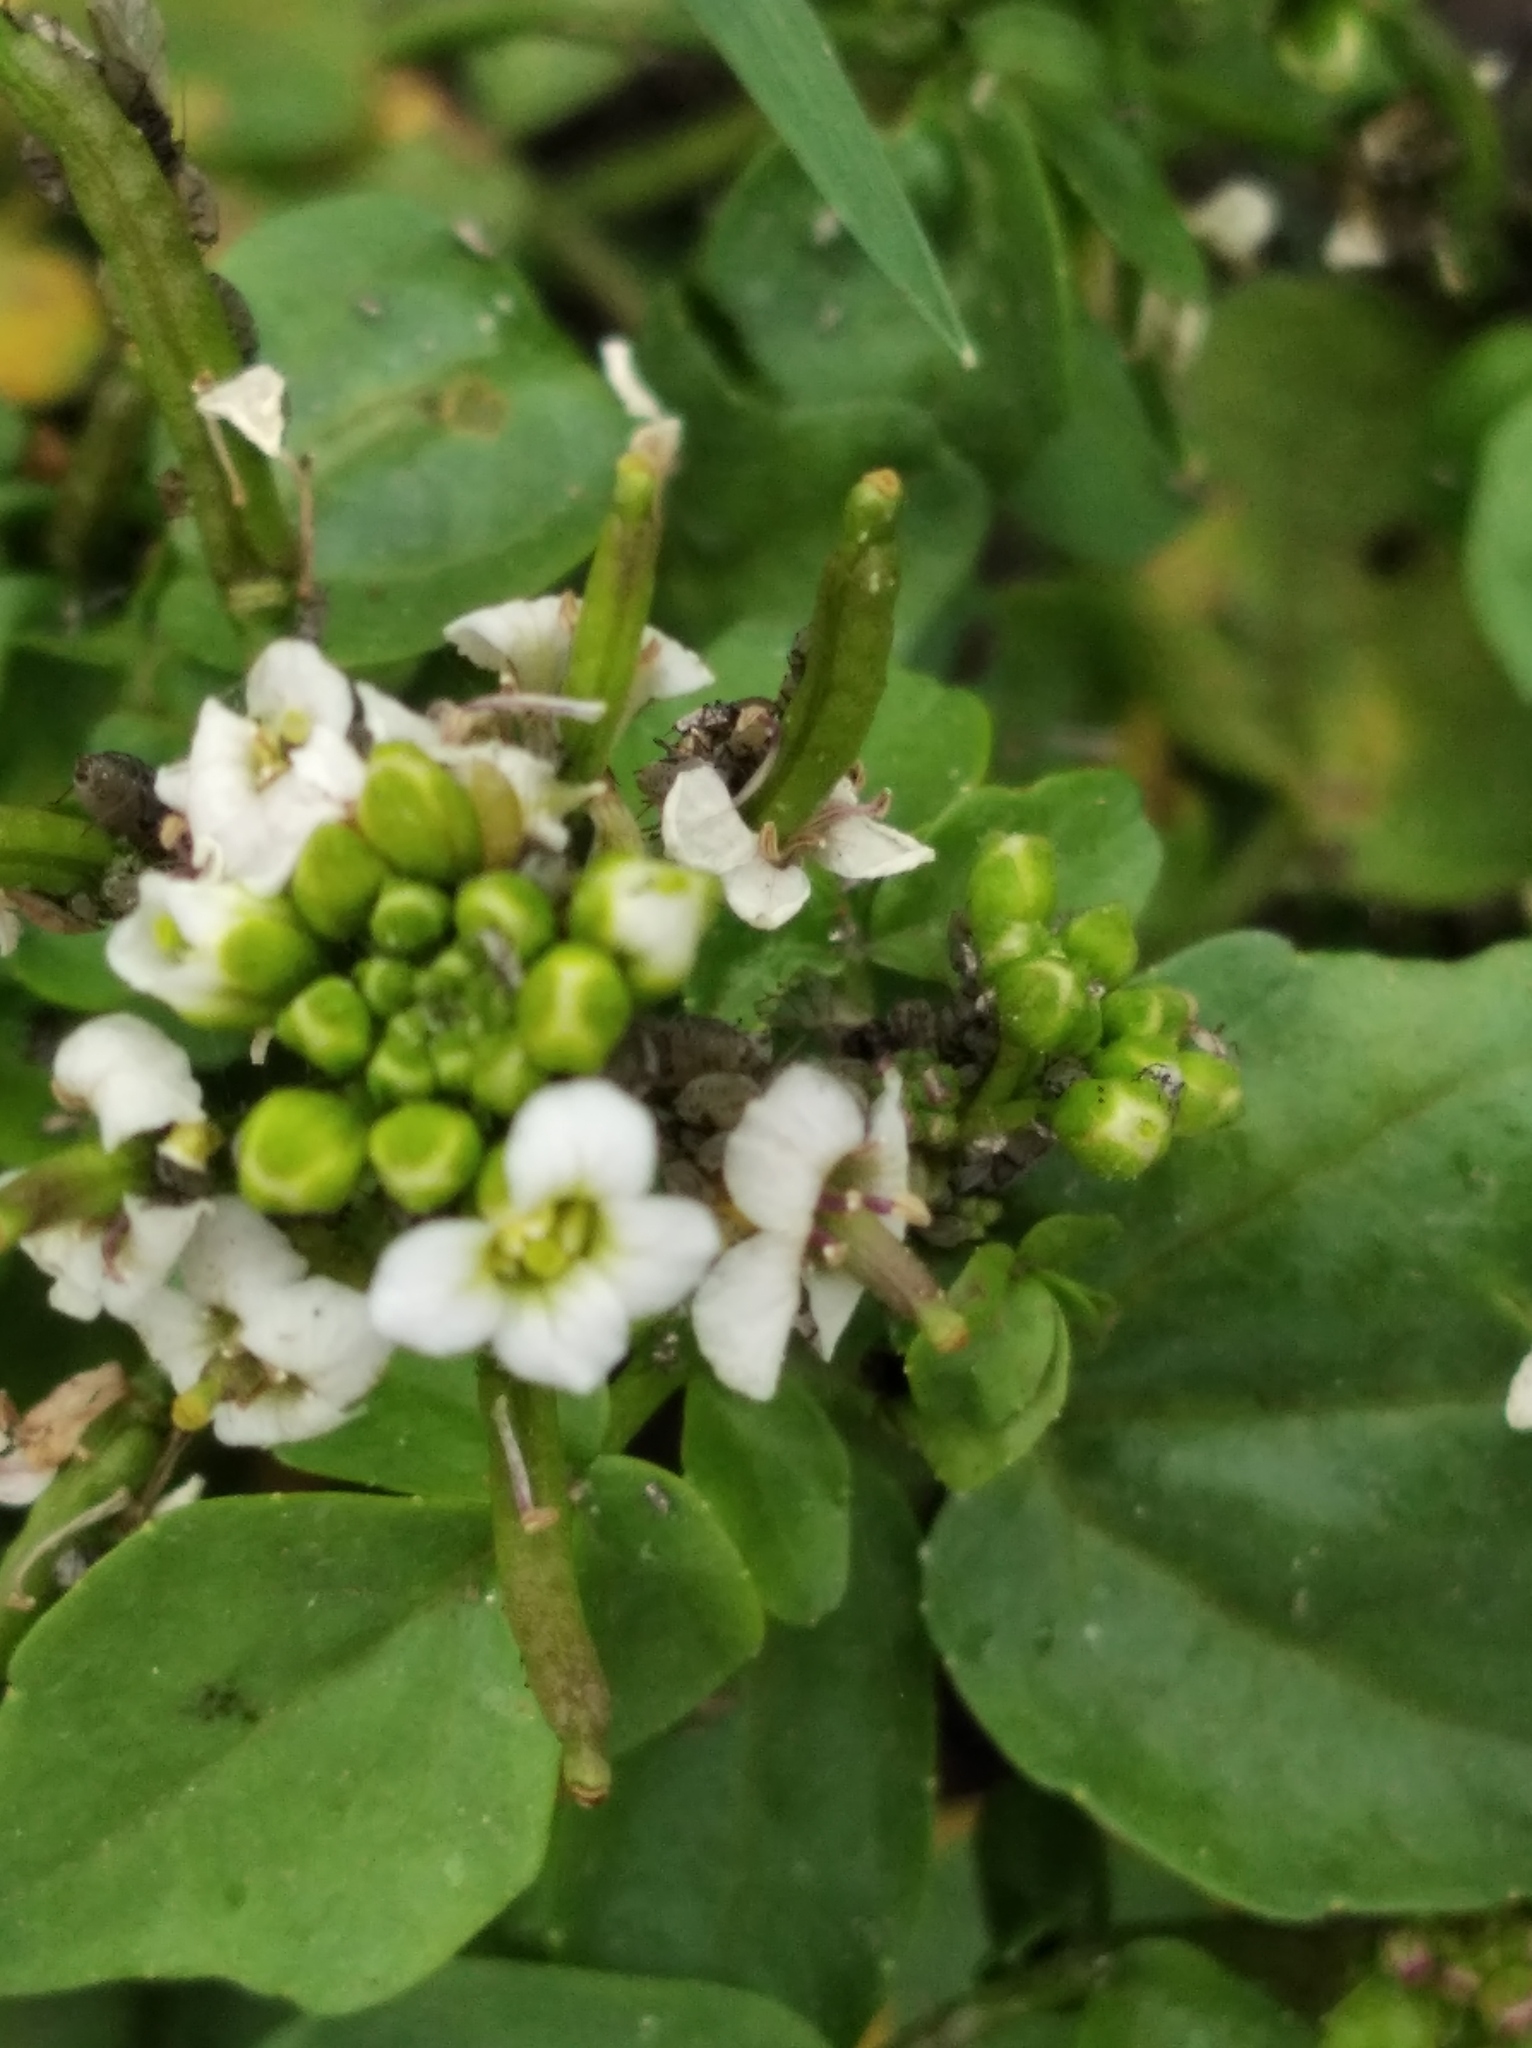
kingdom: Plantae
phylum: Tracheophyta
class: Magnoliopsida
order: Brassicales
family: Brassicaceae
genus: Nasturtium
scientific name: Nasturtium officinale
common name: Watercress
